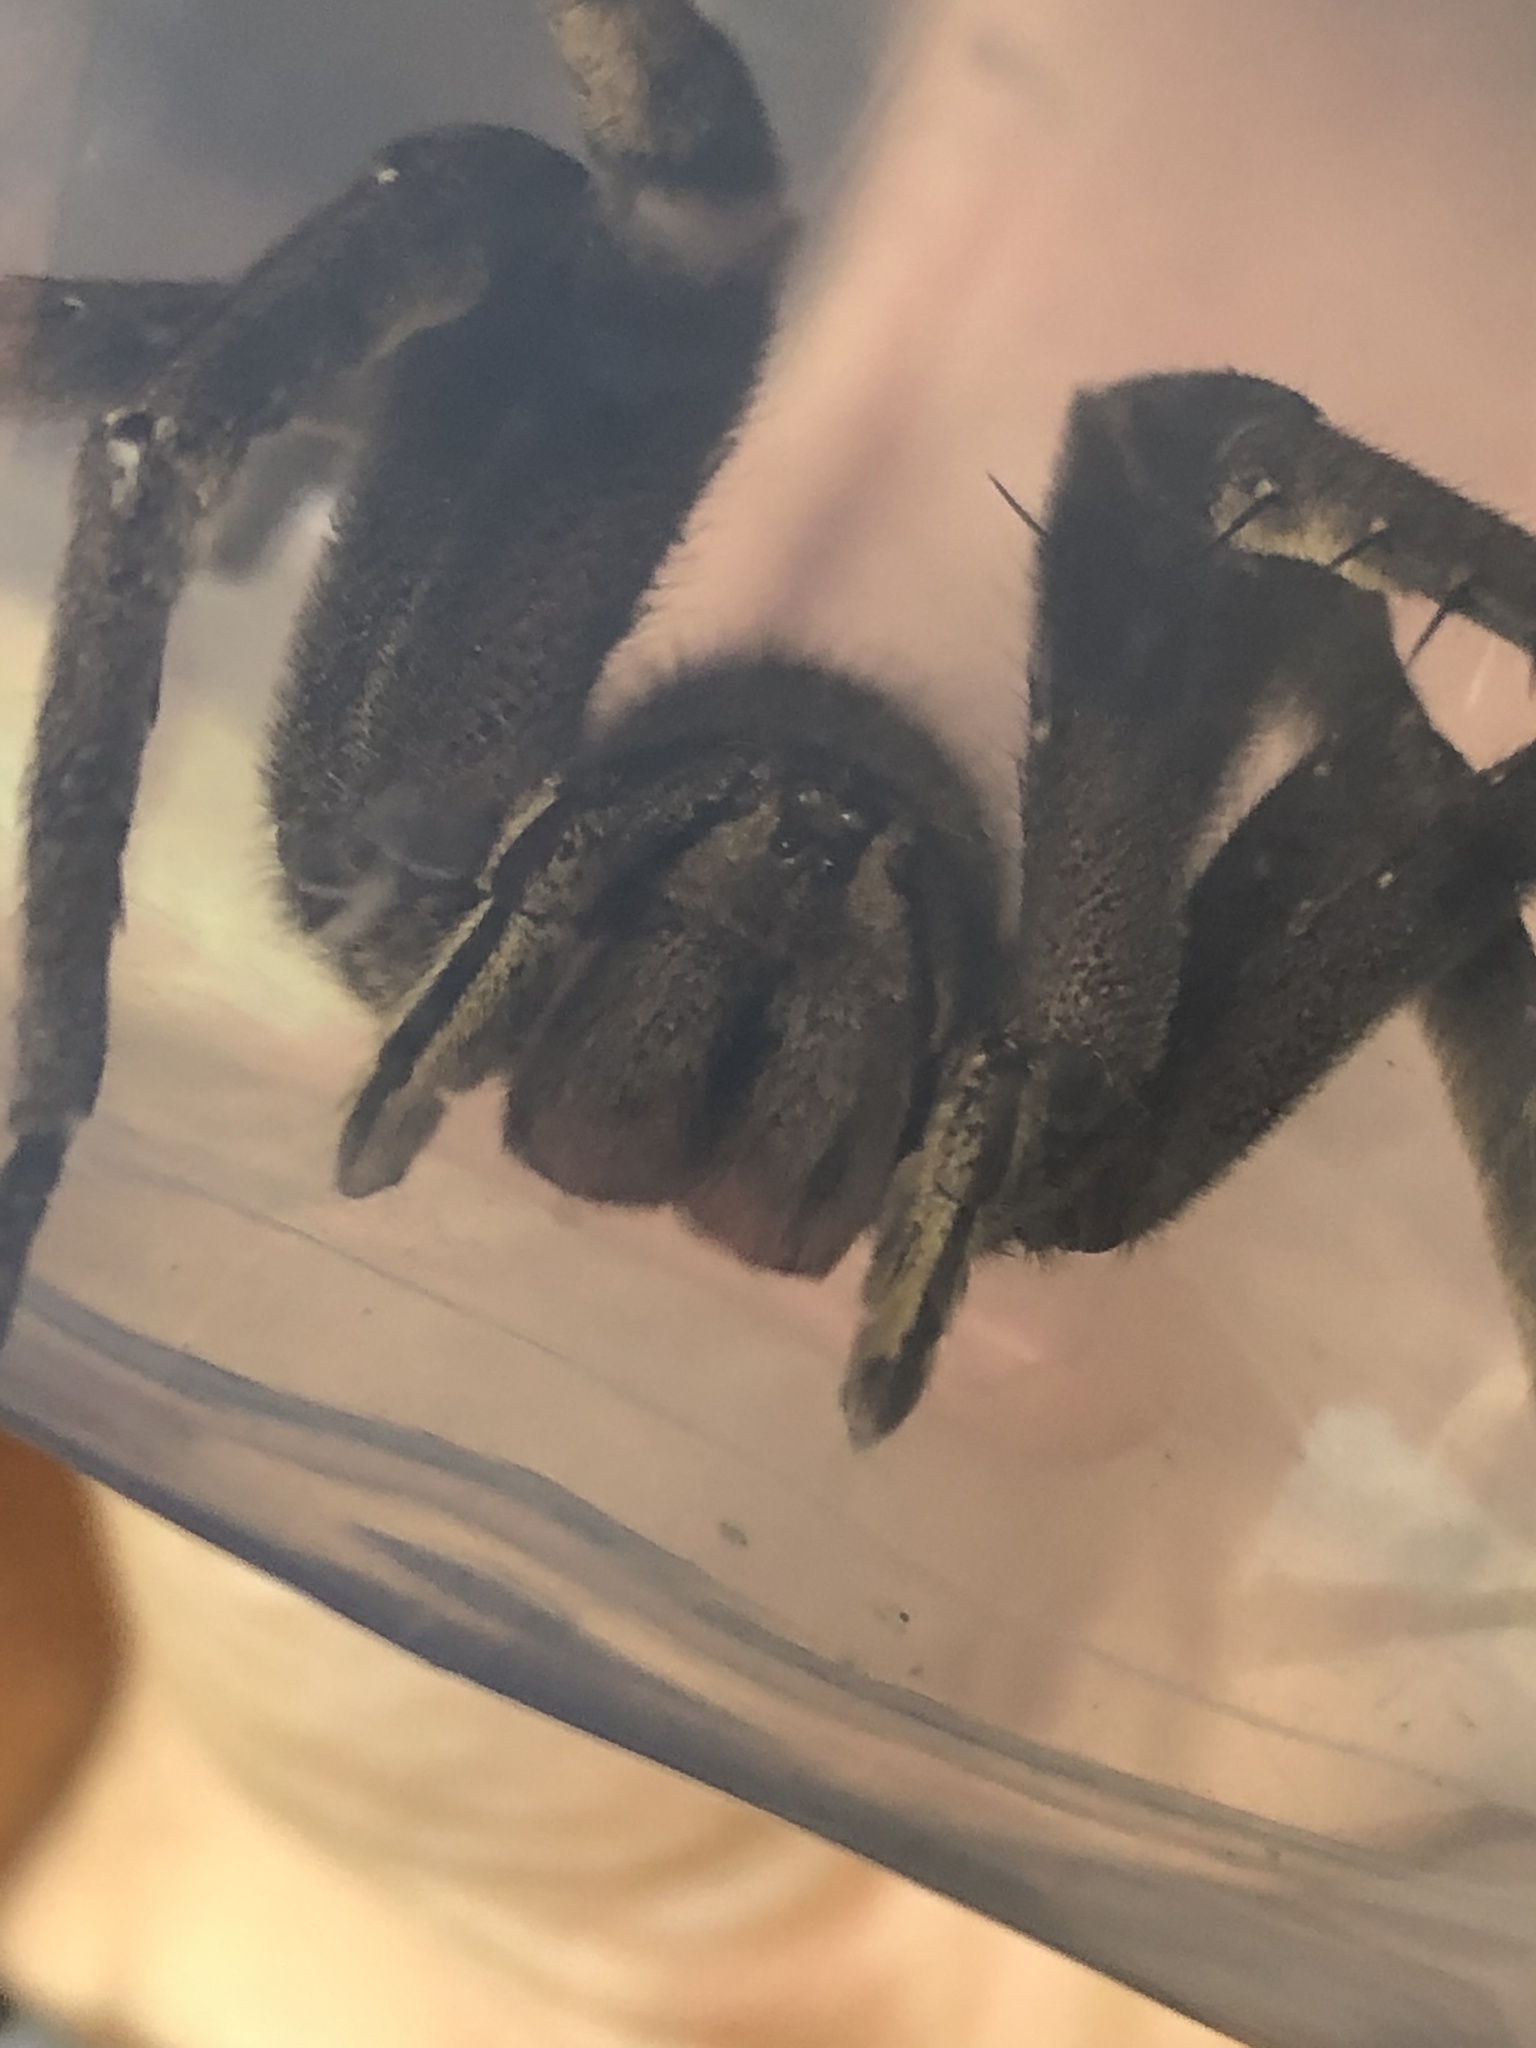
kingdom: Animalia
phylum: Arthropoda
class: Arachnida
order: Araneae
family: Ctenidae
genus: Phoneutria
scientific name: Phoneutria fera
